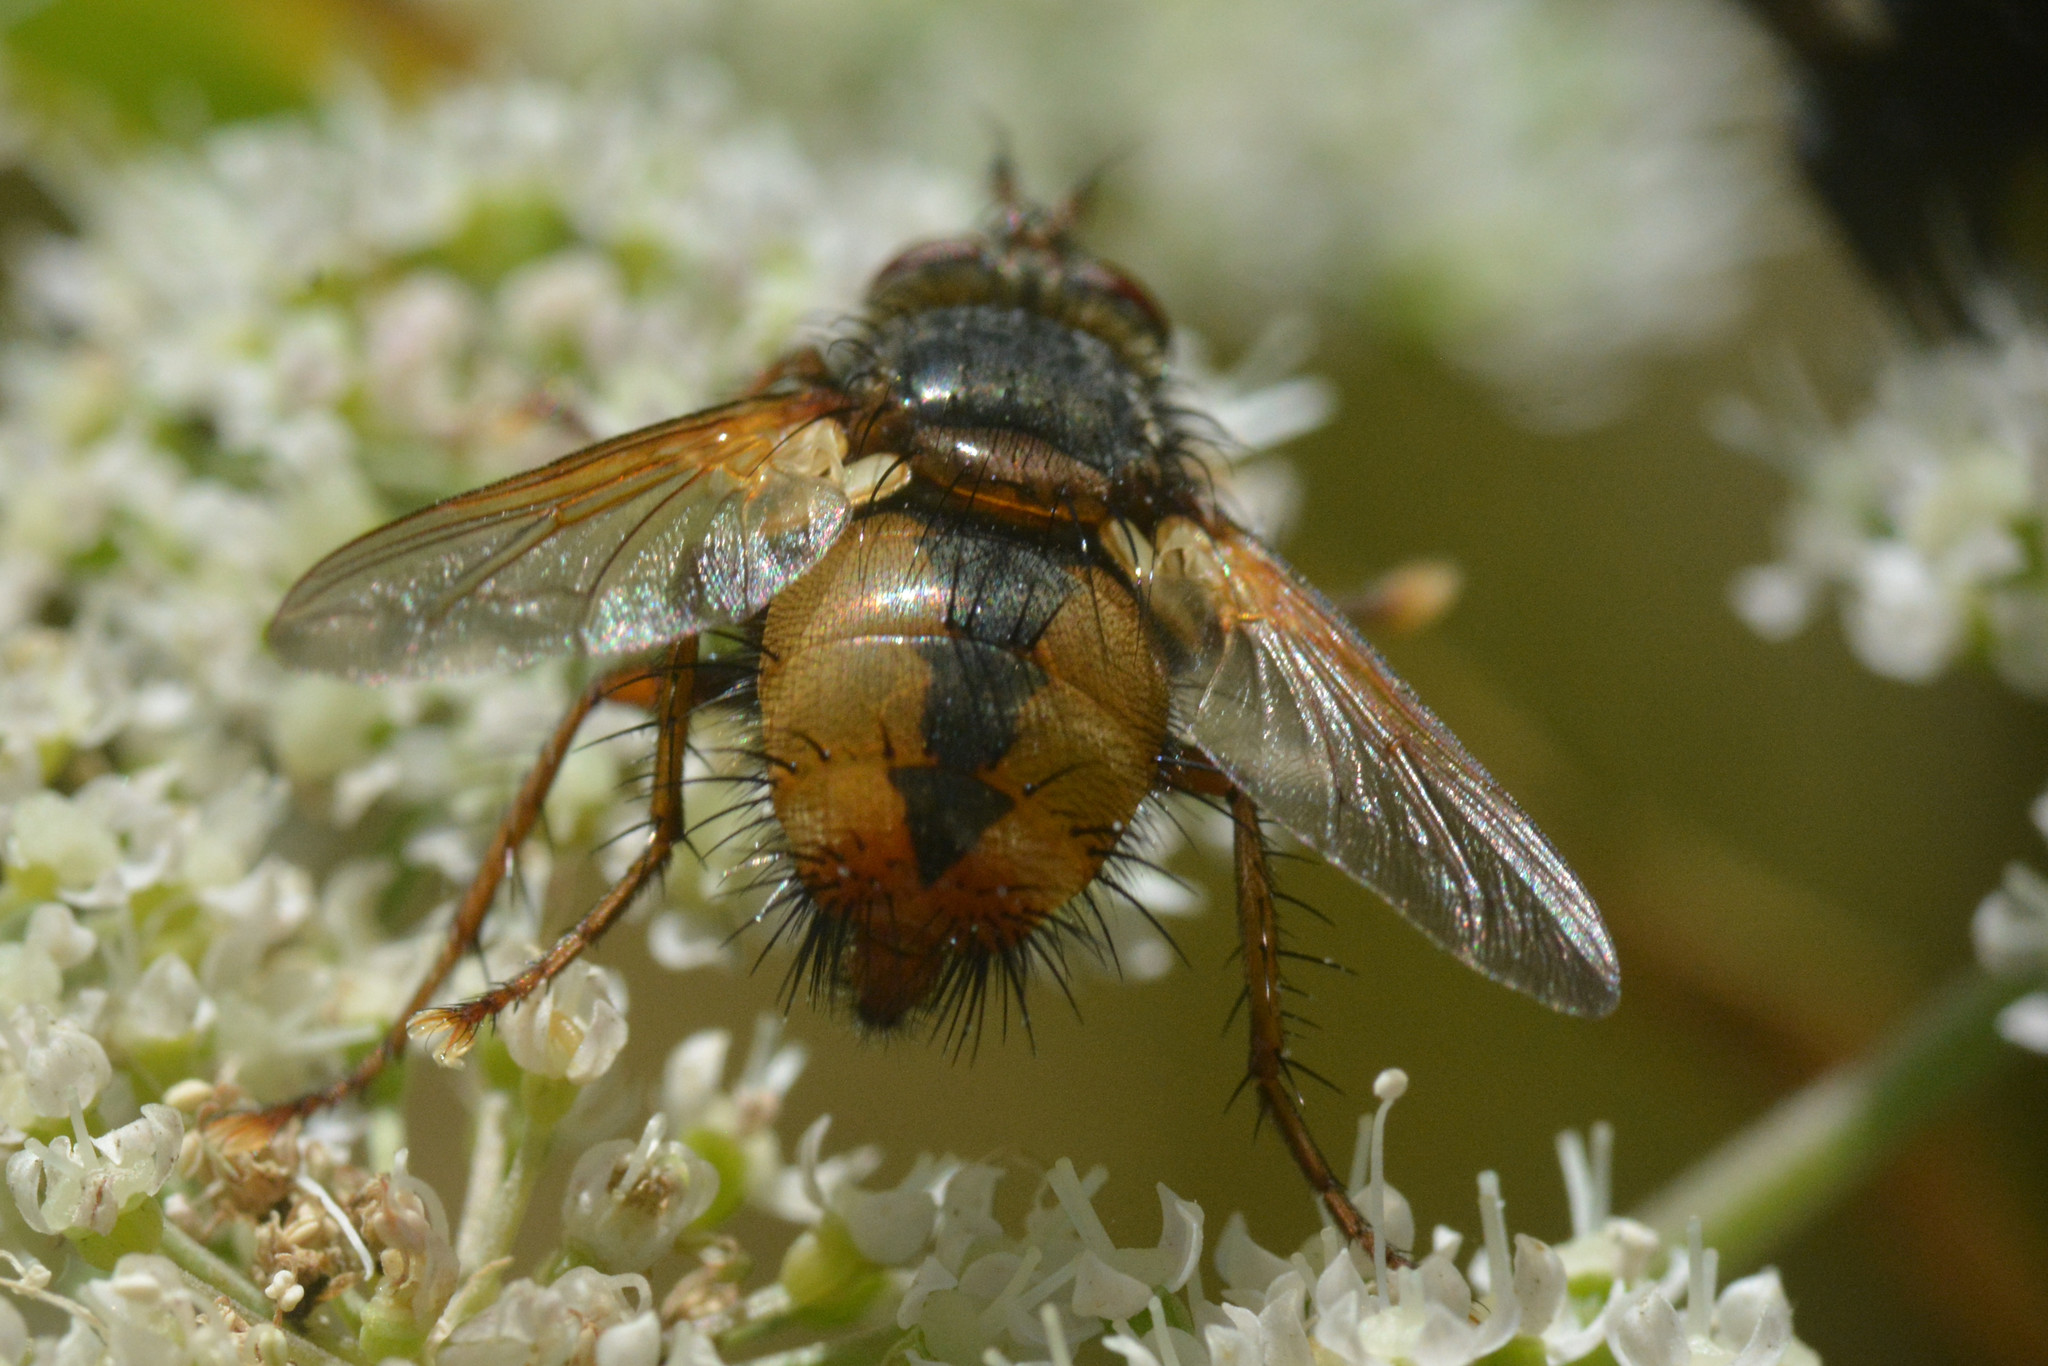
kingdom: Animalia
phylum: Arthropoda
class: Insecta
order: Diptera
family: Tachinidae
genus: Tachina
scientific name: Tachina fera
